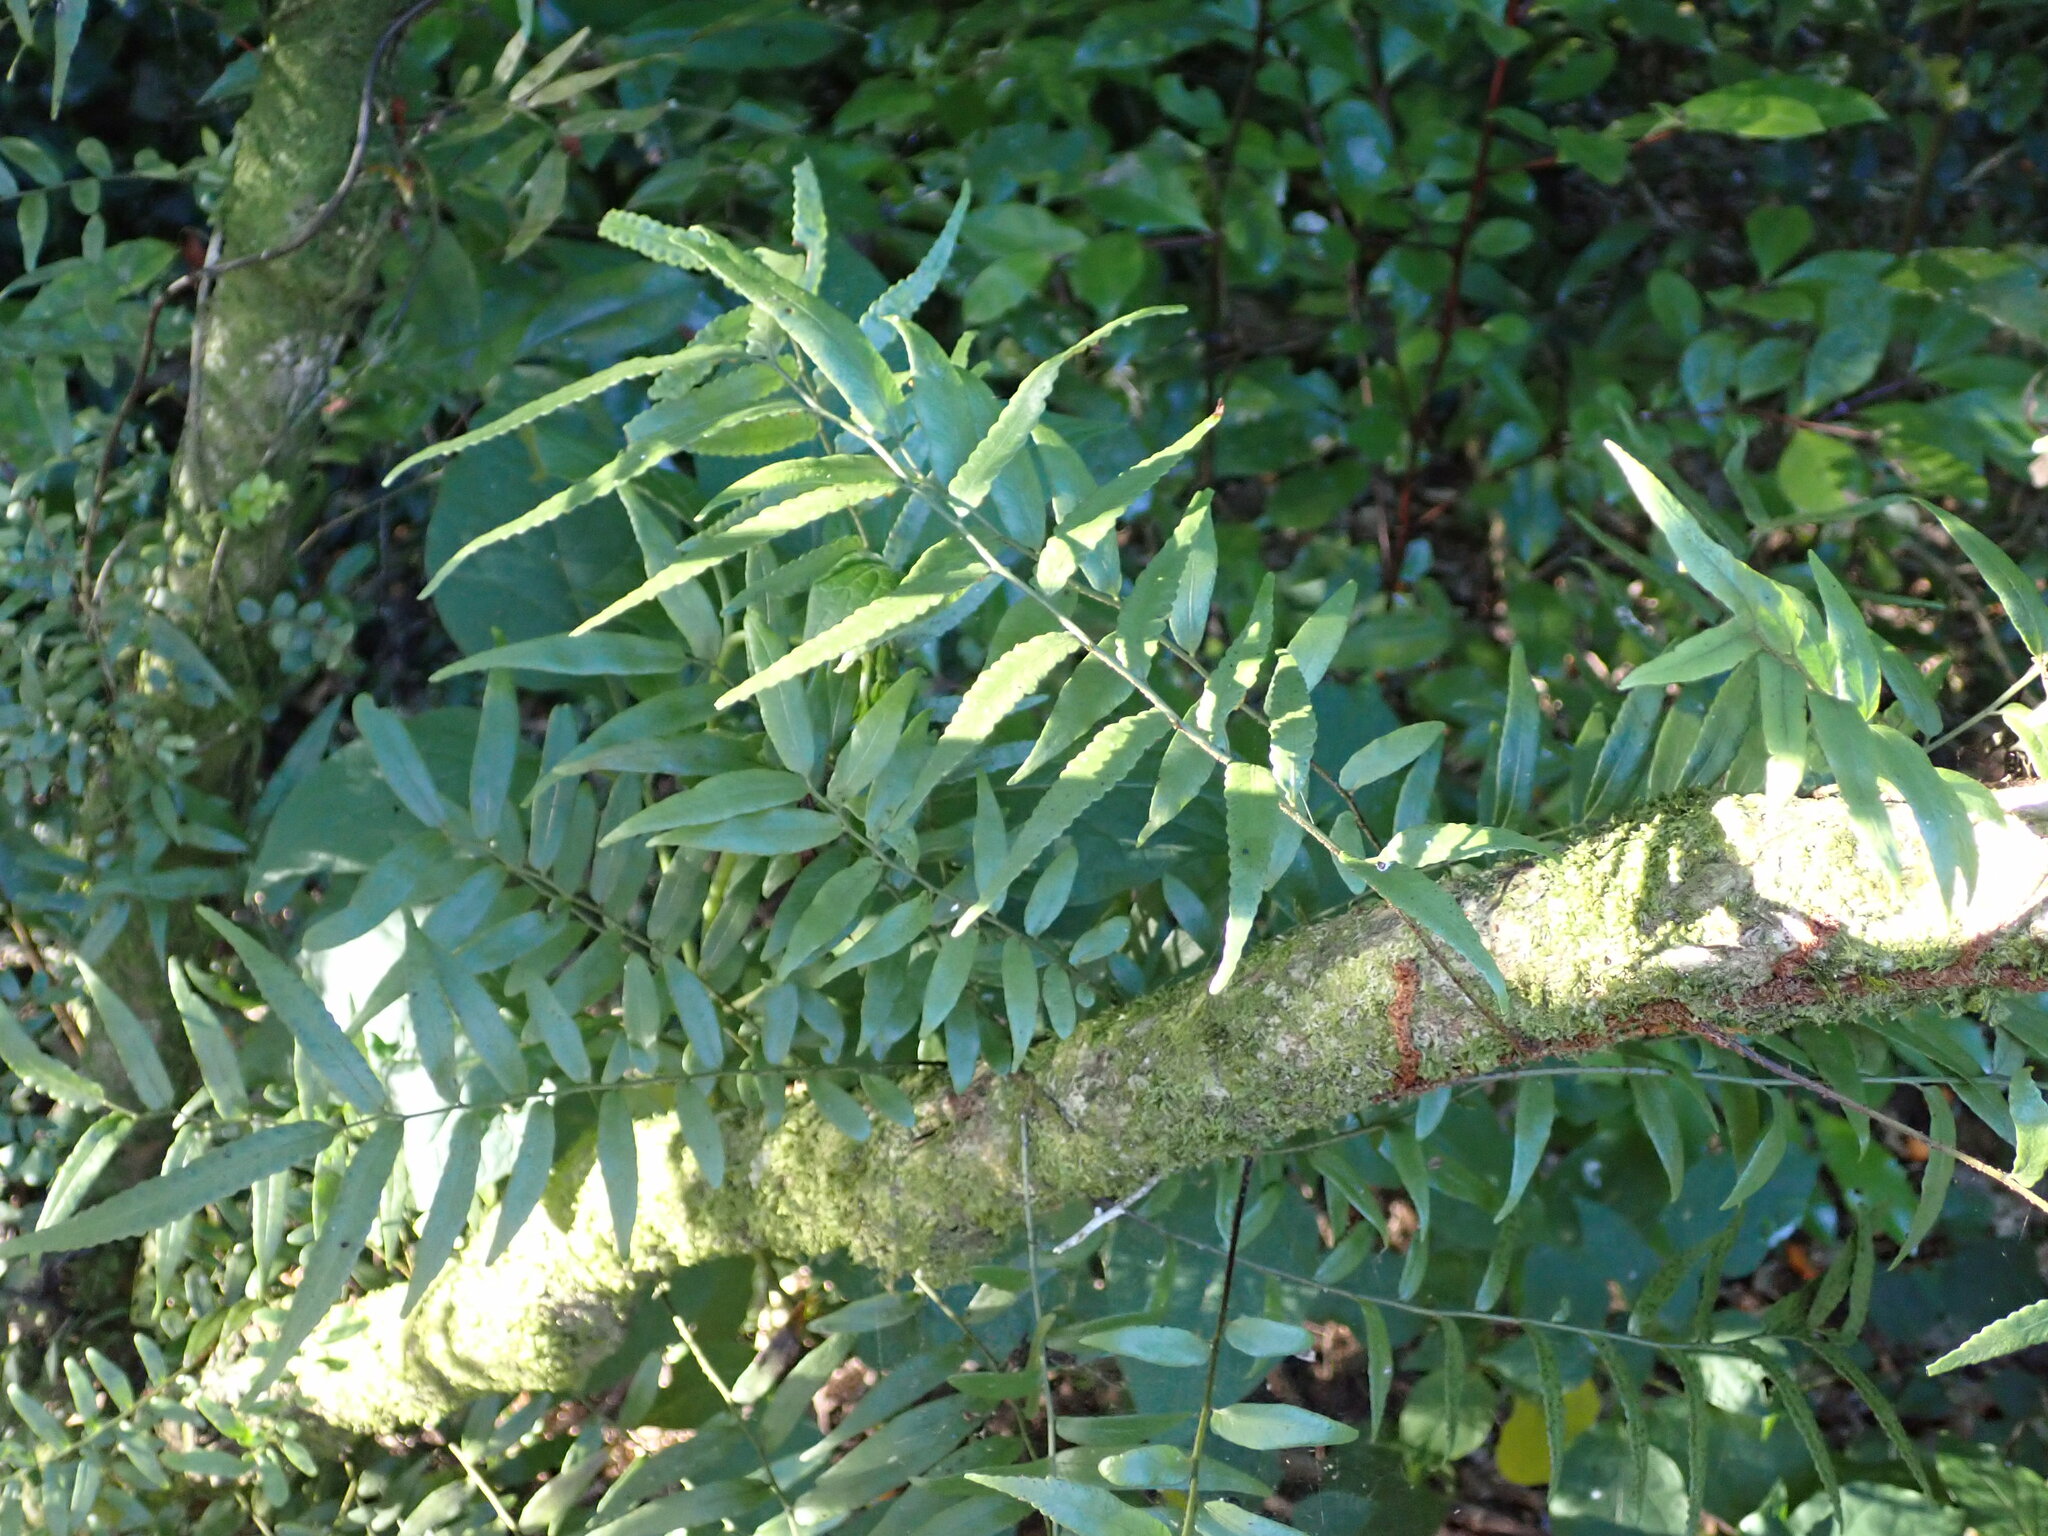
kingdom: Plantae
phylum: Tracheophyta
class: Polypodiopsida
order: Polypodiales
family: Tectariaceae
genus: Arthropteris
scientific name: Arthropteris tenella
